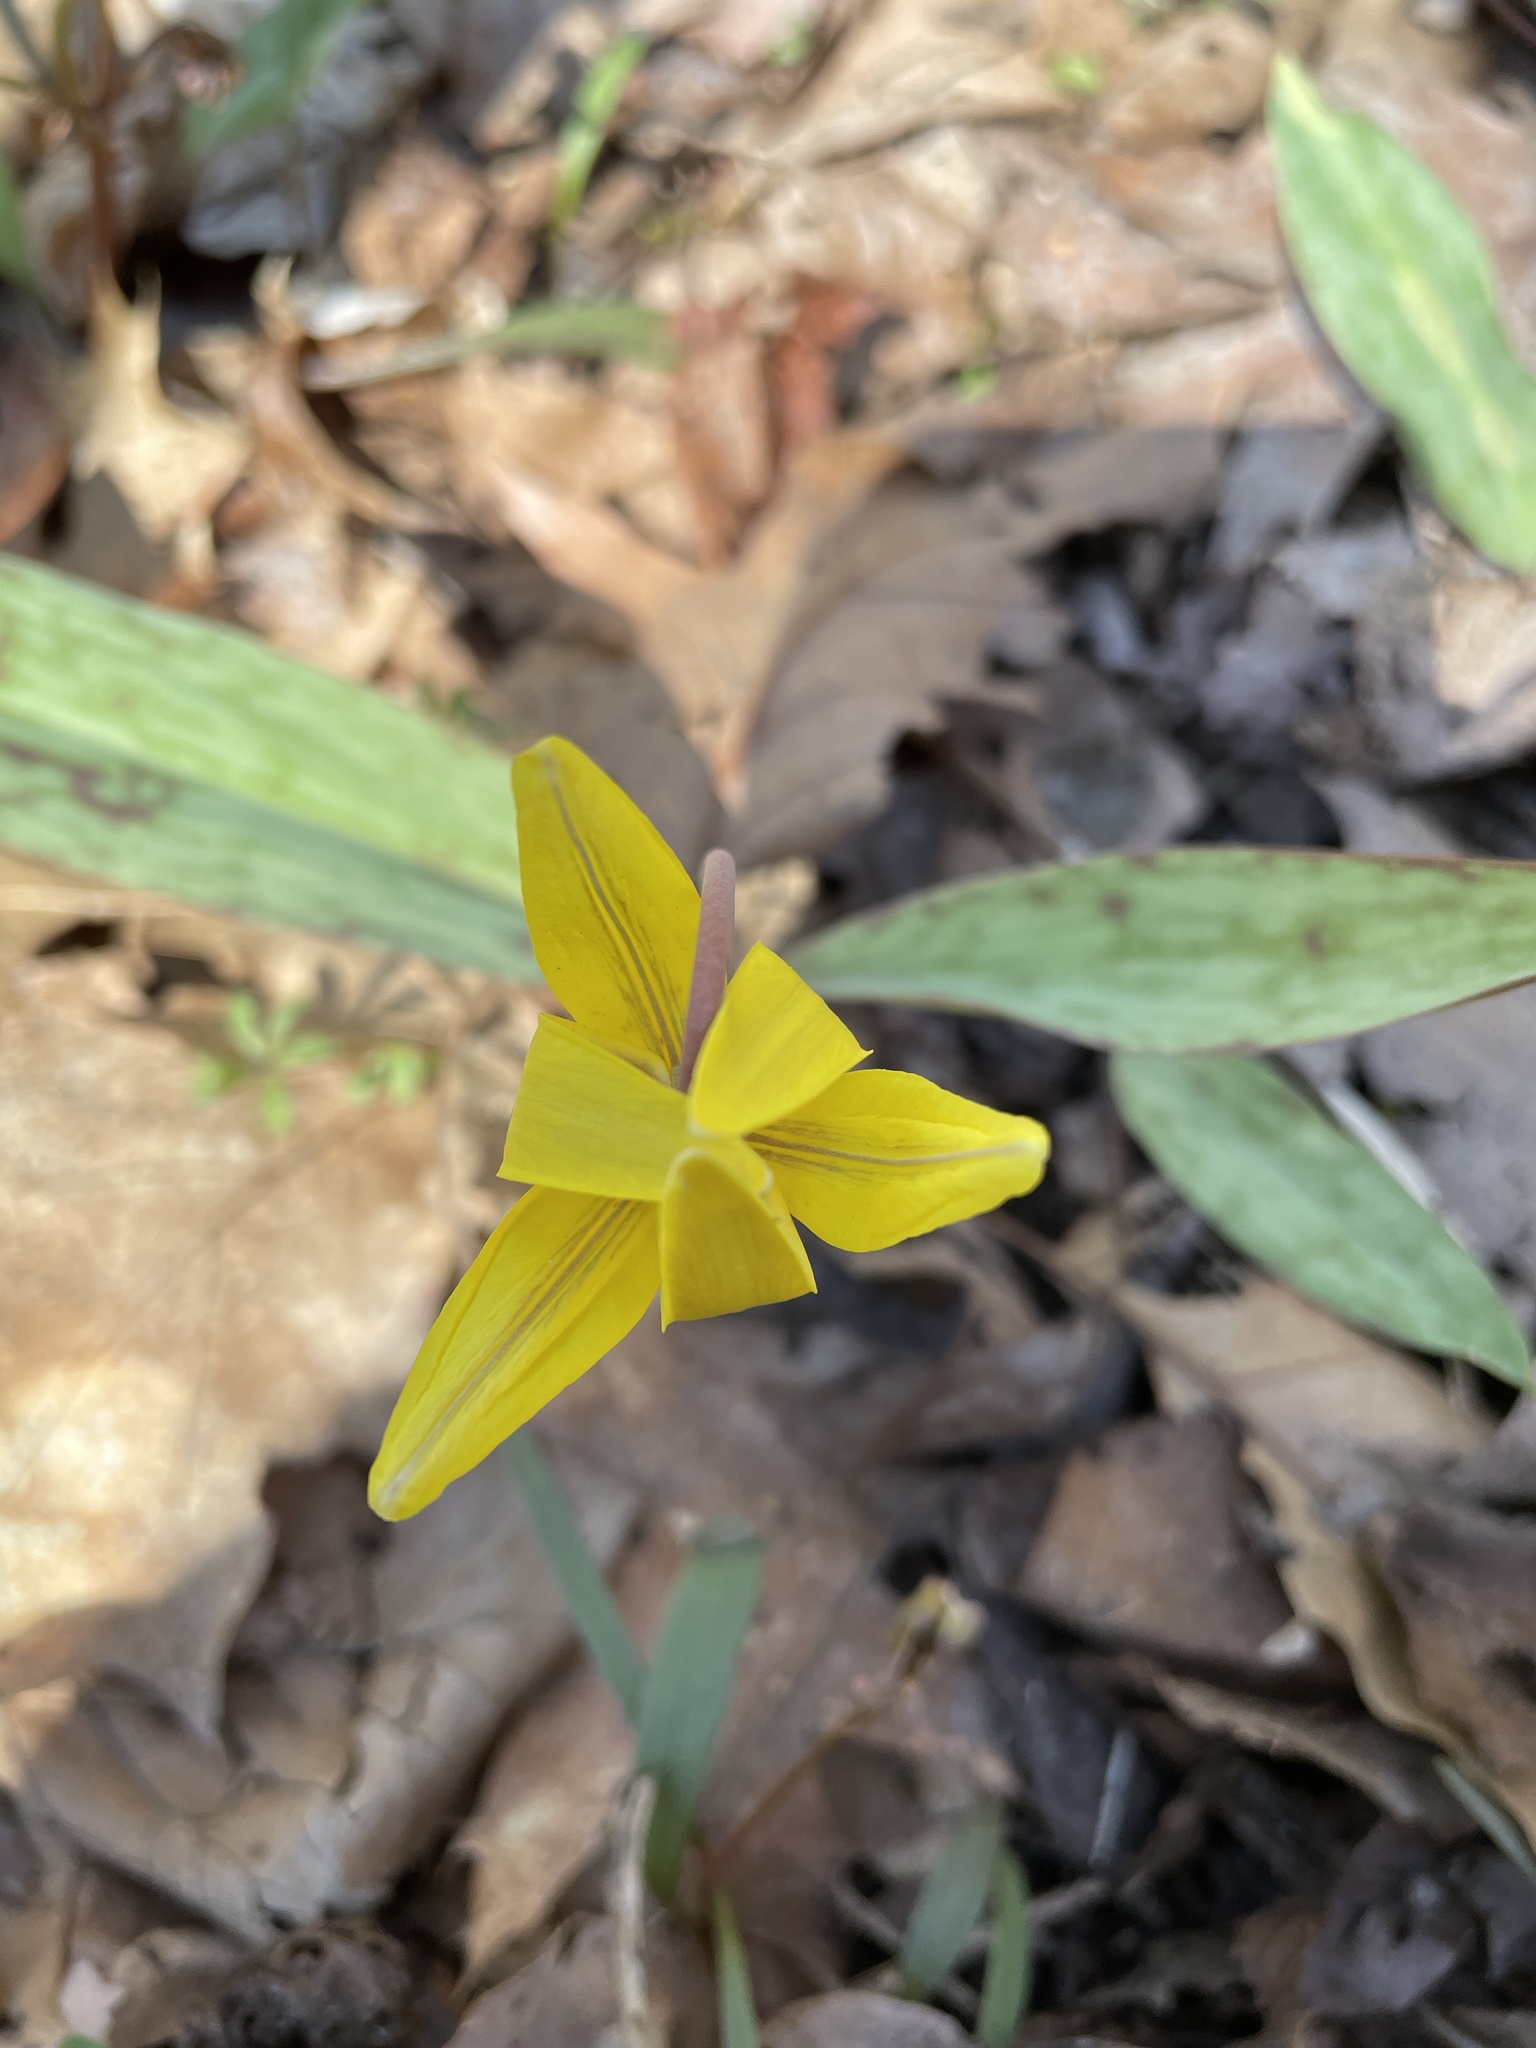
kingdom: Plantae
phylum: Tracheophyta
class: Liliopsida
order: Liliales
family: Liliaceae
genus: Erythronium
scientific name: Erythronium americanum
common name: Yellow adder's-tongue
